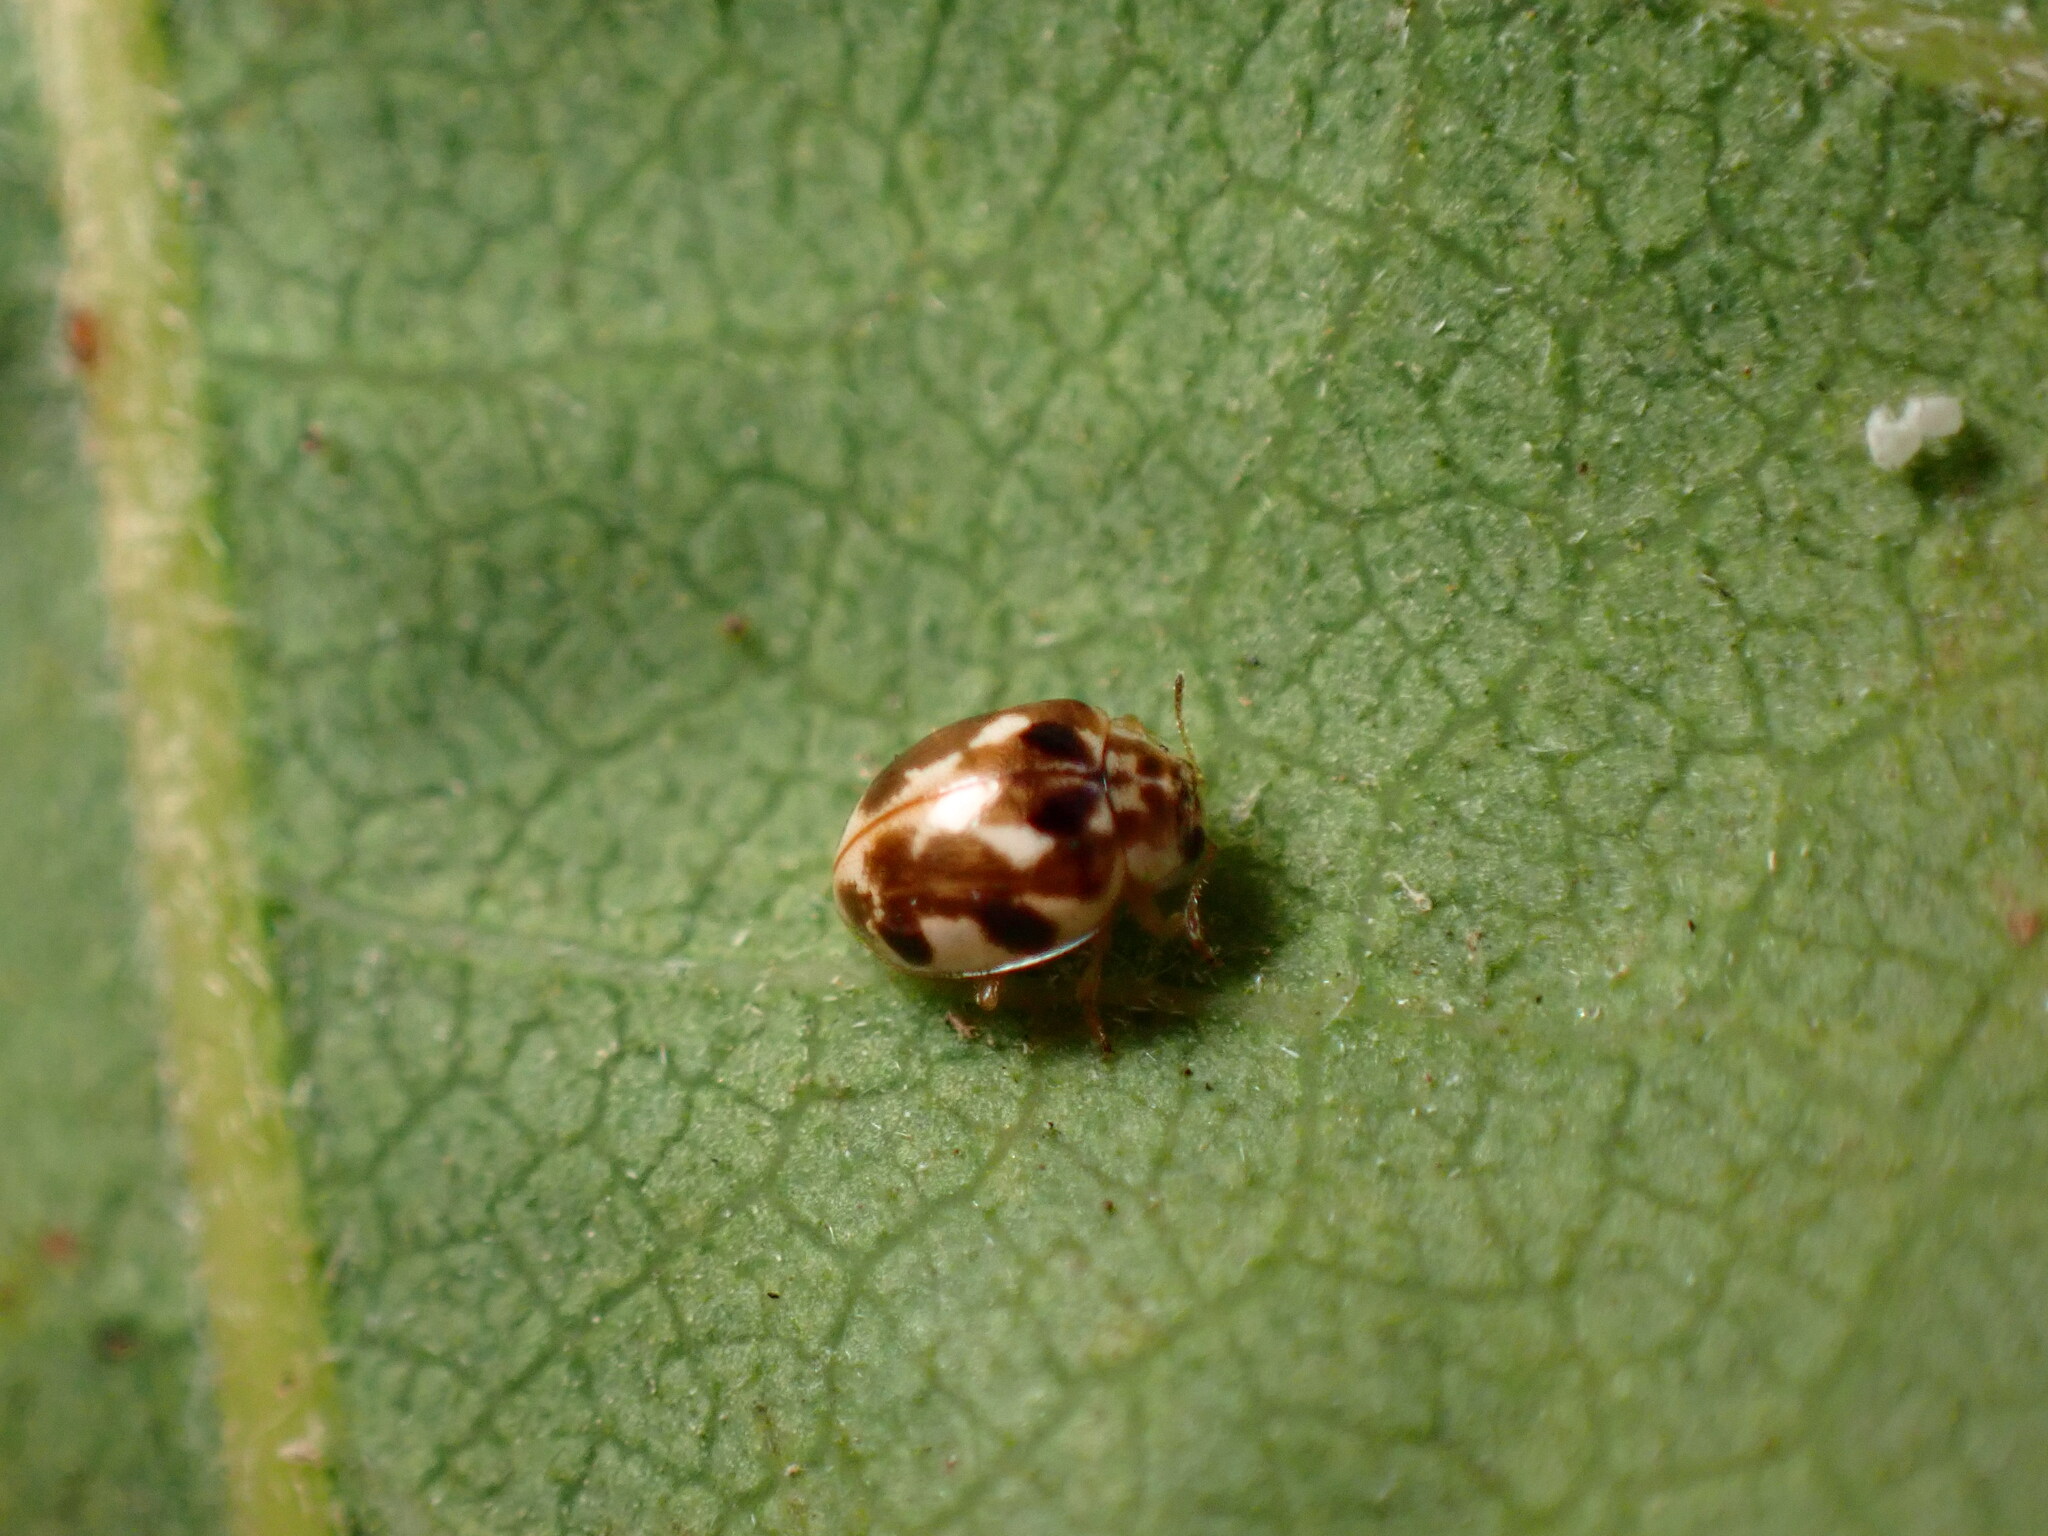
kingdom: Animalia
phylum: Arthropoda
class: Insecta
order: Coleoptera
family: Coccinellidae
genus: Psyllobora
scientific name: Psyllobora vigintimaculata
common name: Ladybird beetle
